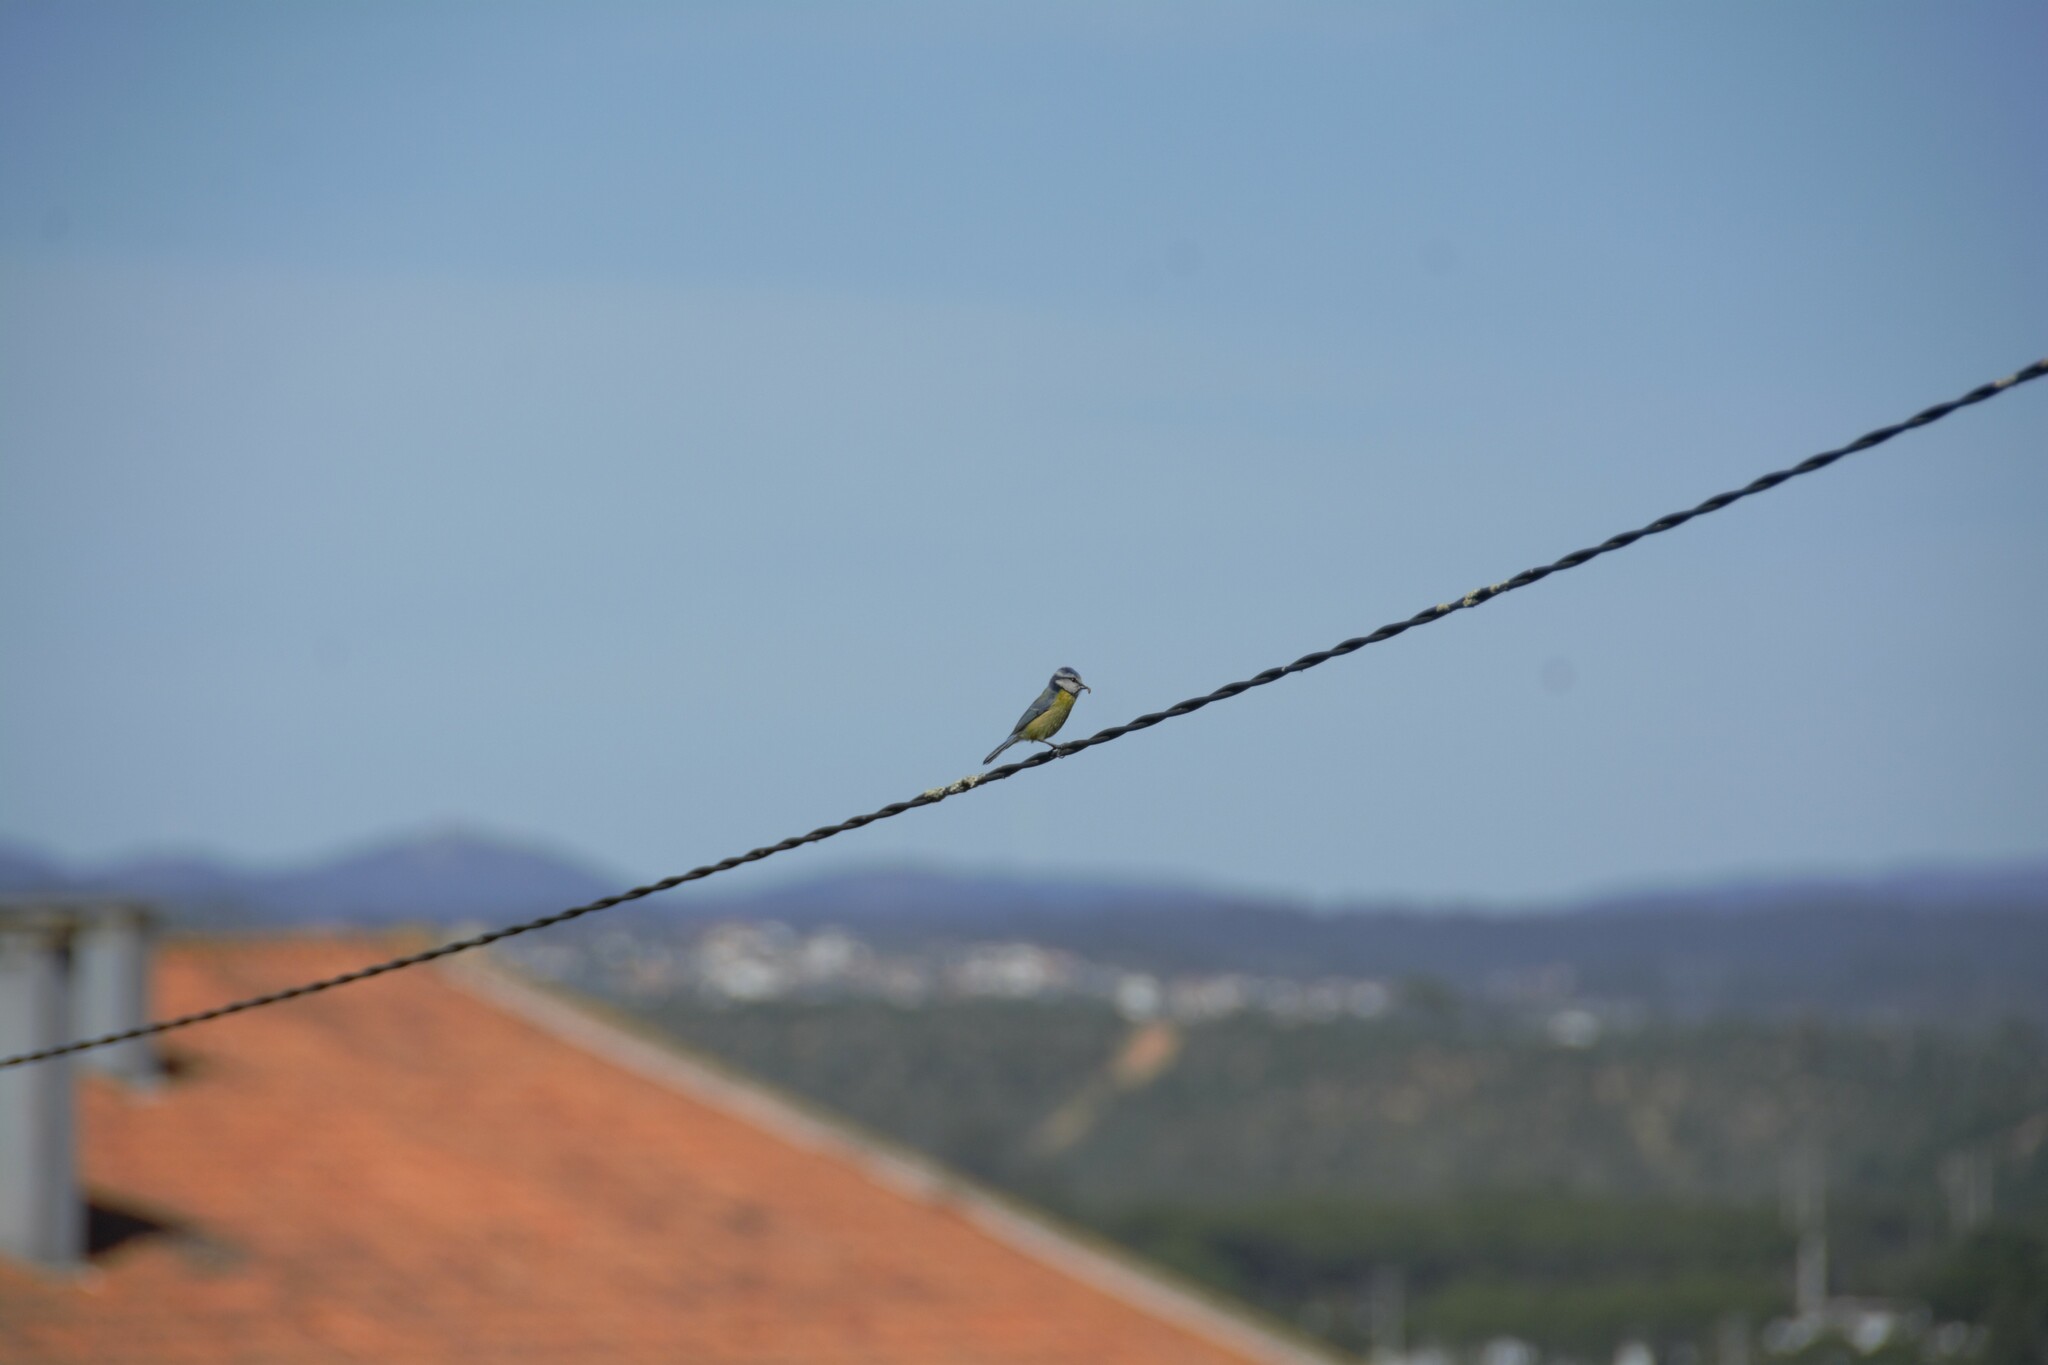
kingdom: Animalia
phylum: Chordata
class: Aves
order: Passeriformes
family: Paridae
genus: Cyanistes
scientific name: Cyanistes caeruleus
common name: Eurasian blue tit
